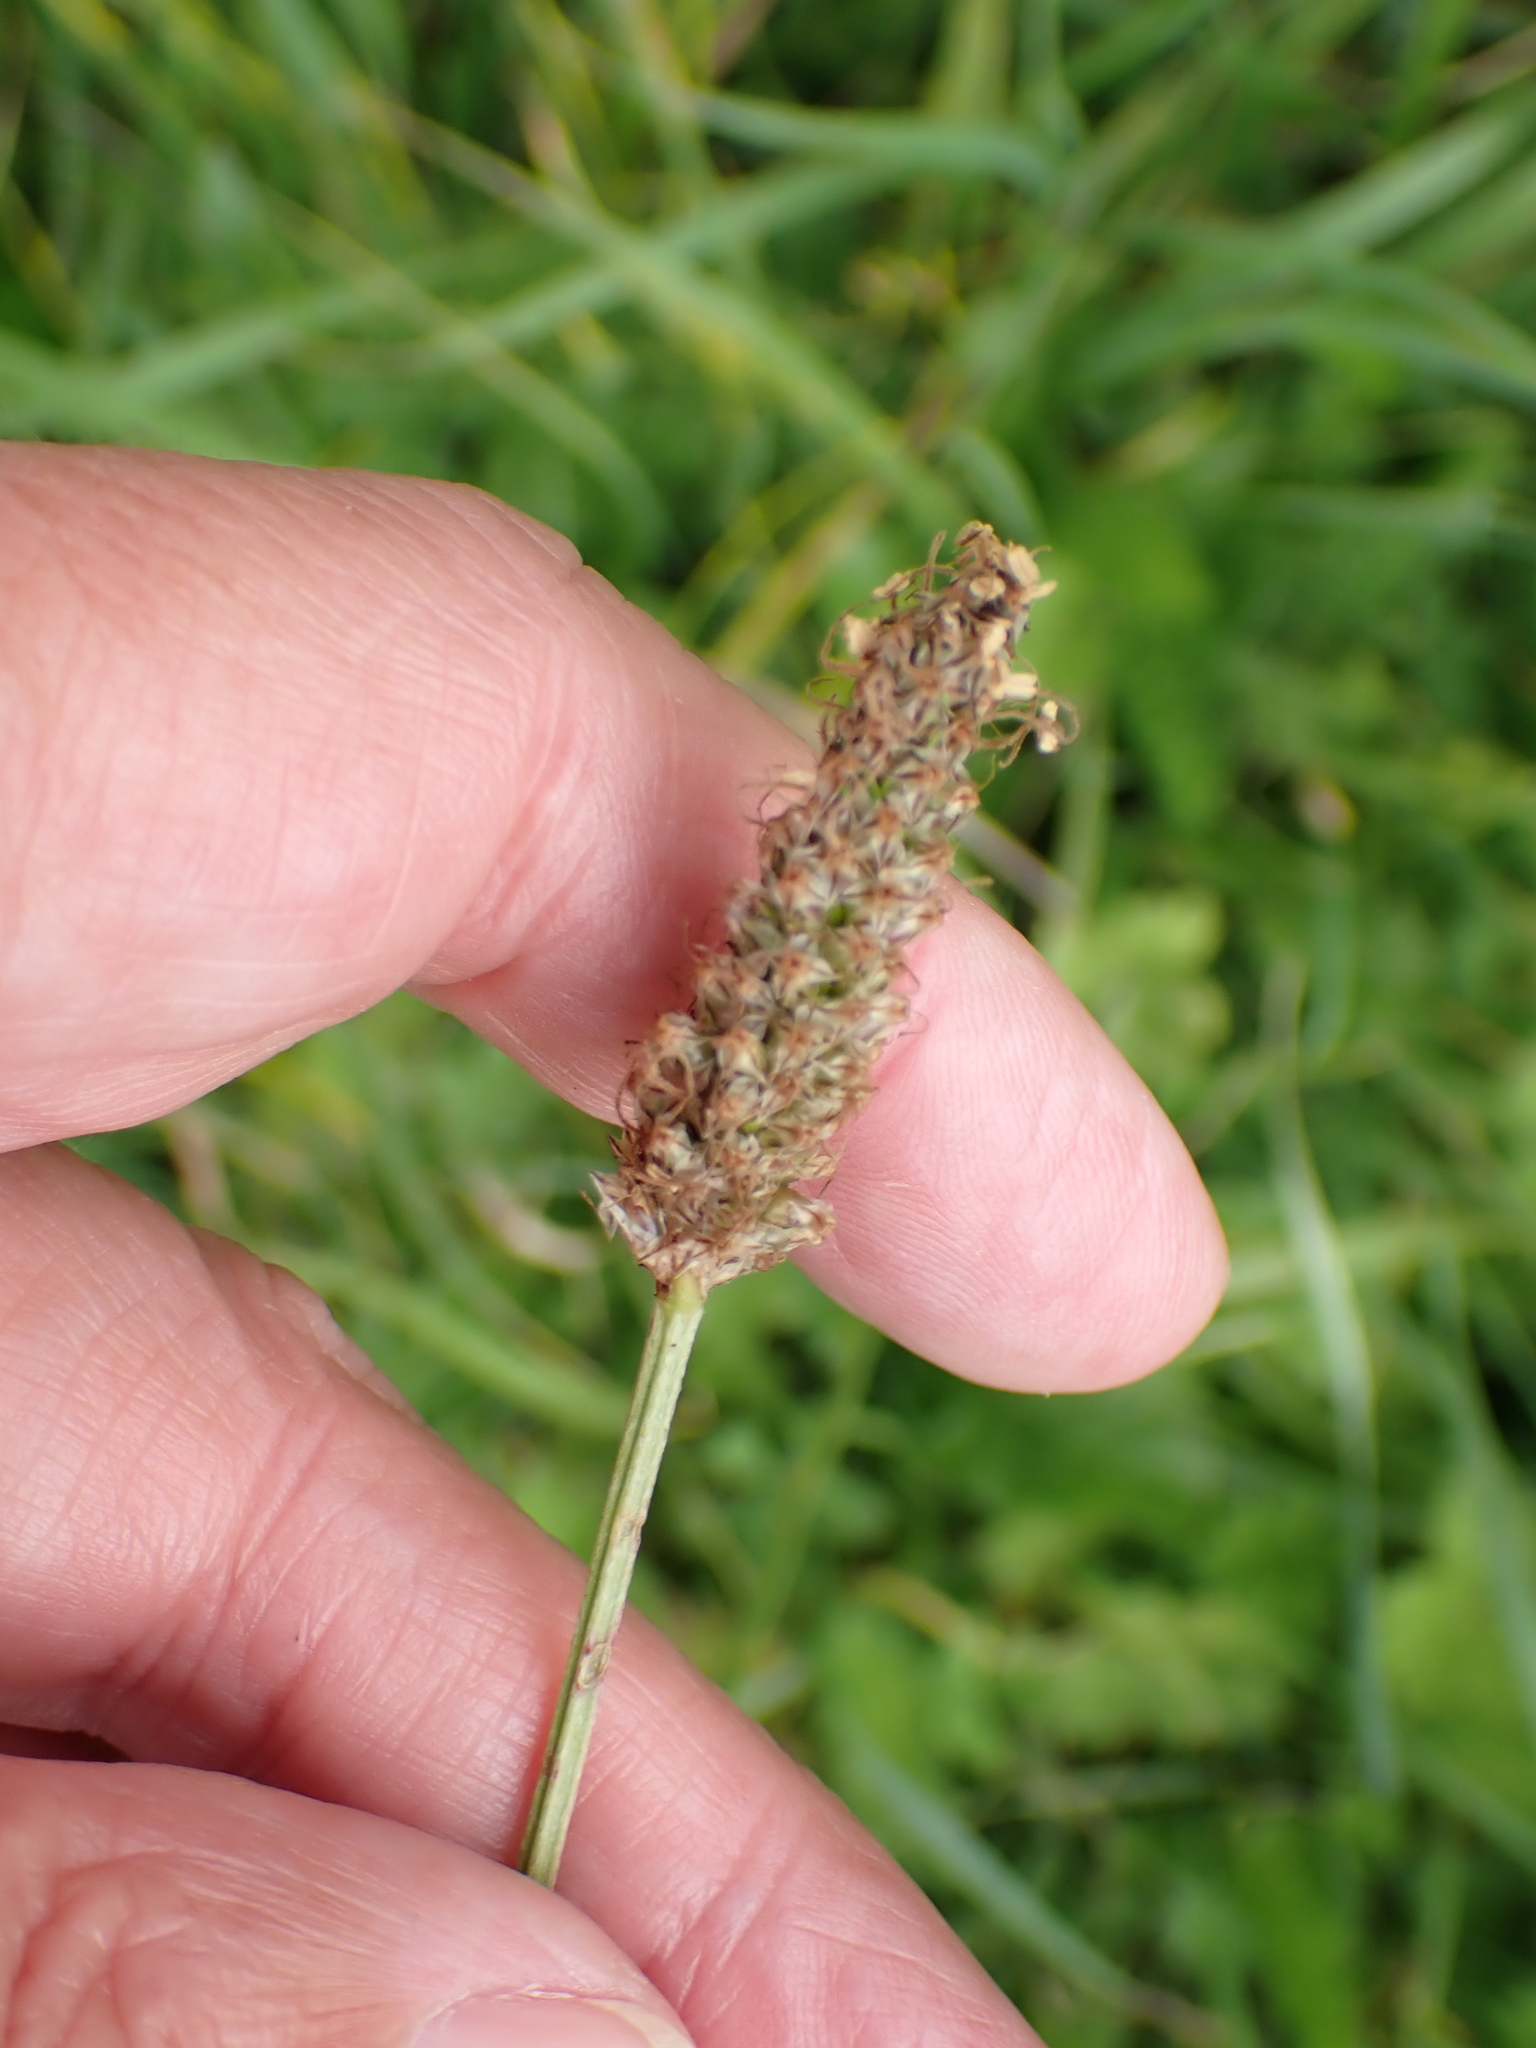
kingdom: Plantae
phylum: Tracheophyta
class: Magnoliopsida
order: Lamiales
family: Plantaginaceae
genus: Plantago
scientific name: Plantago lanceolata
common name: Ribwort plantain
